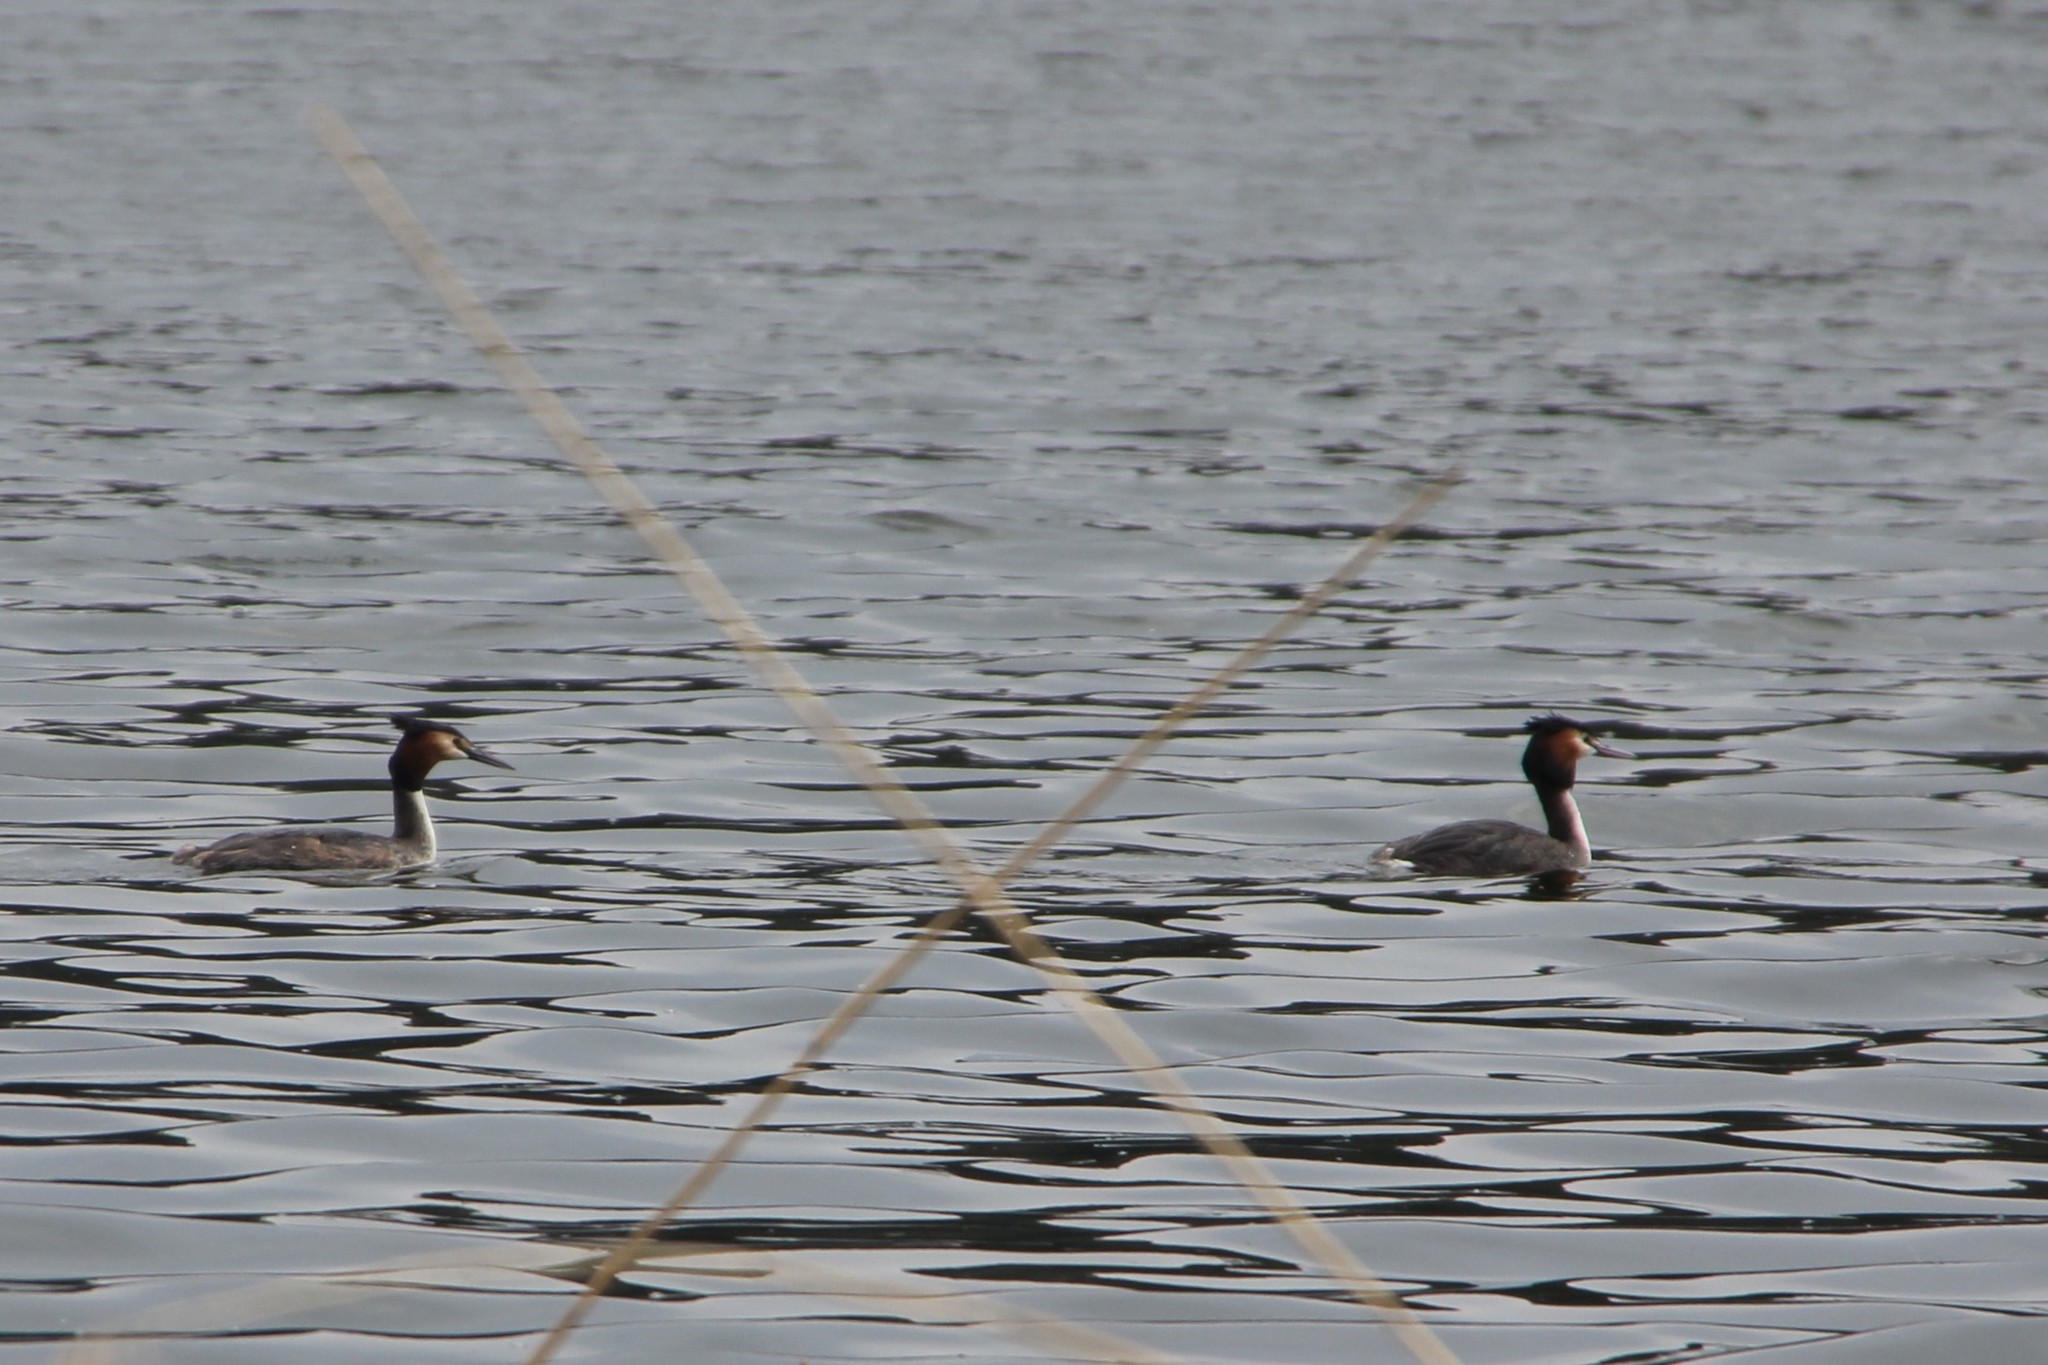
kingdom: Animalia
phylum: Chordata
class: Aves
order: Podicipediformes
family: Podicipedidae
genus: Podiceps
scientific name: Podiceps cristatus
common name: Great crested grebe
